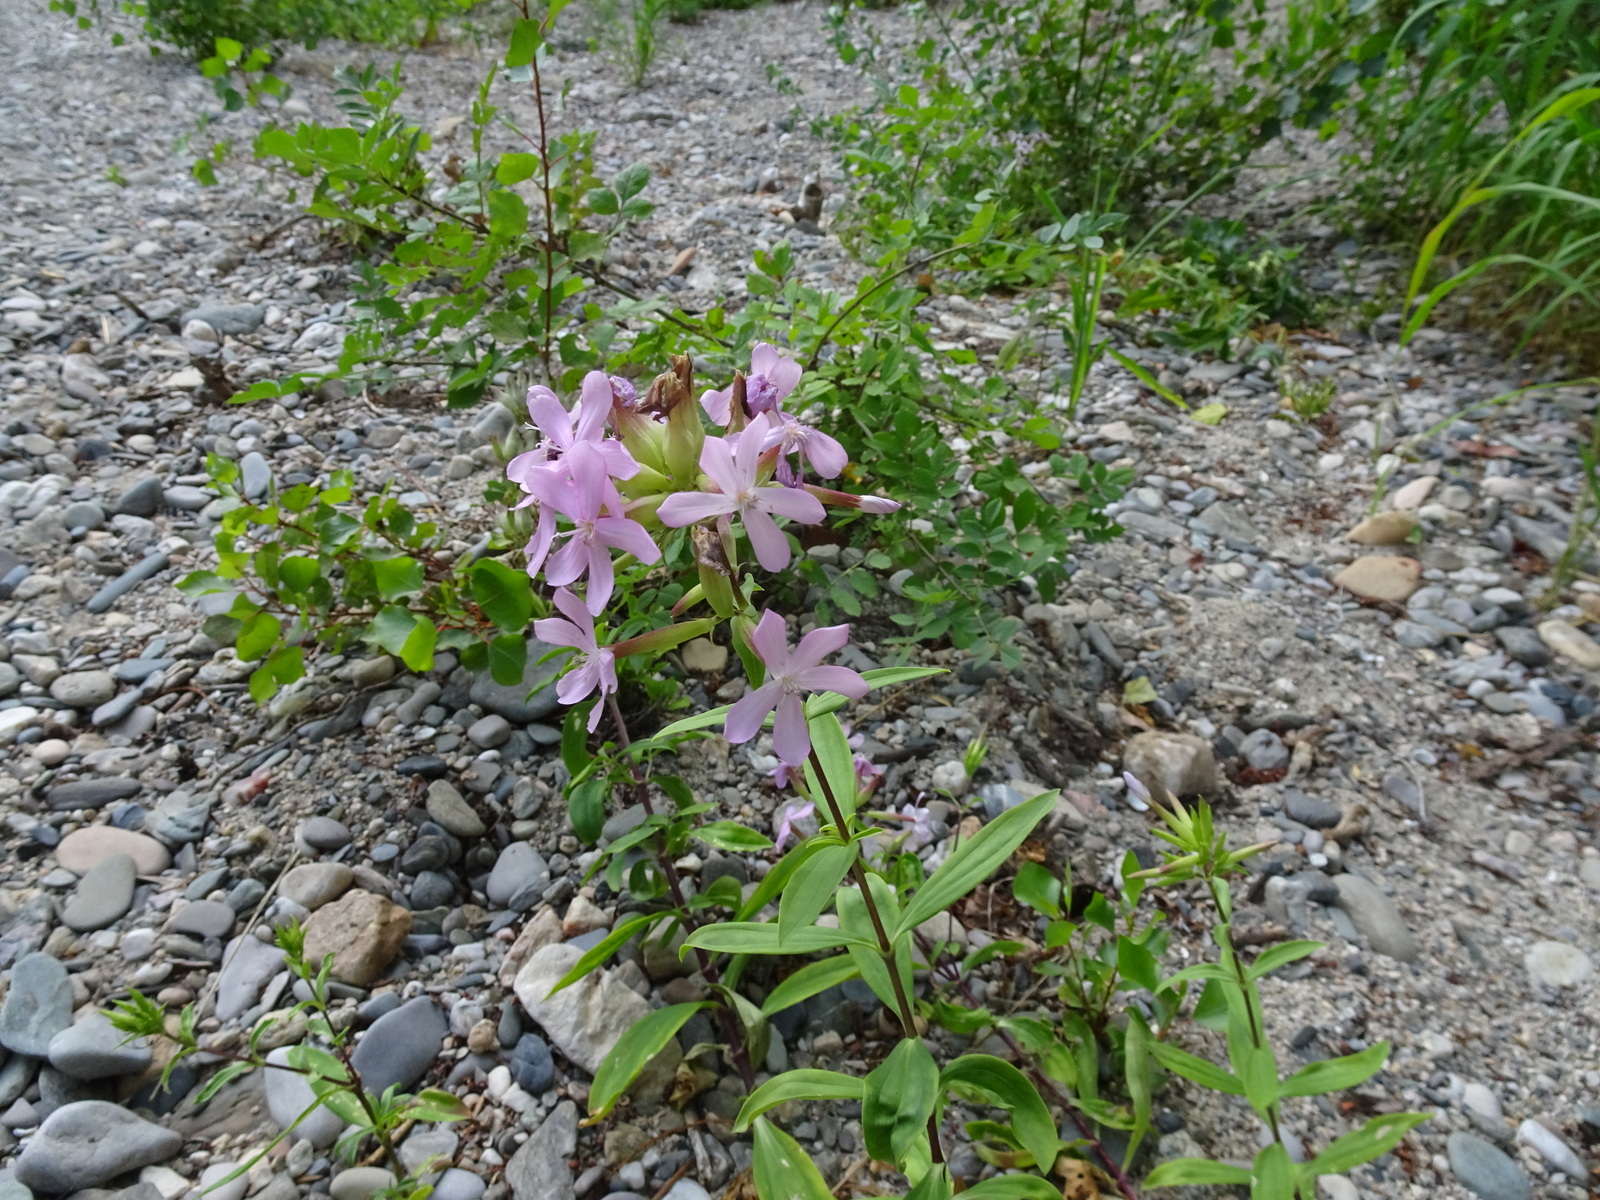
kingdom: Plantae
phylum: Tracheophyta
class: Magnoliopsida
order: Caryophyllales
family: Caryophyllaceae
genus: Saponaria
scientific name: Saponaria officinalis
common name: Soapwort
